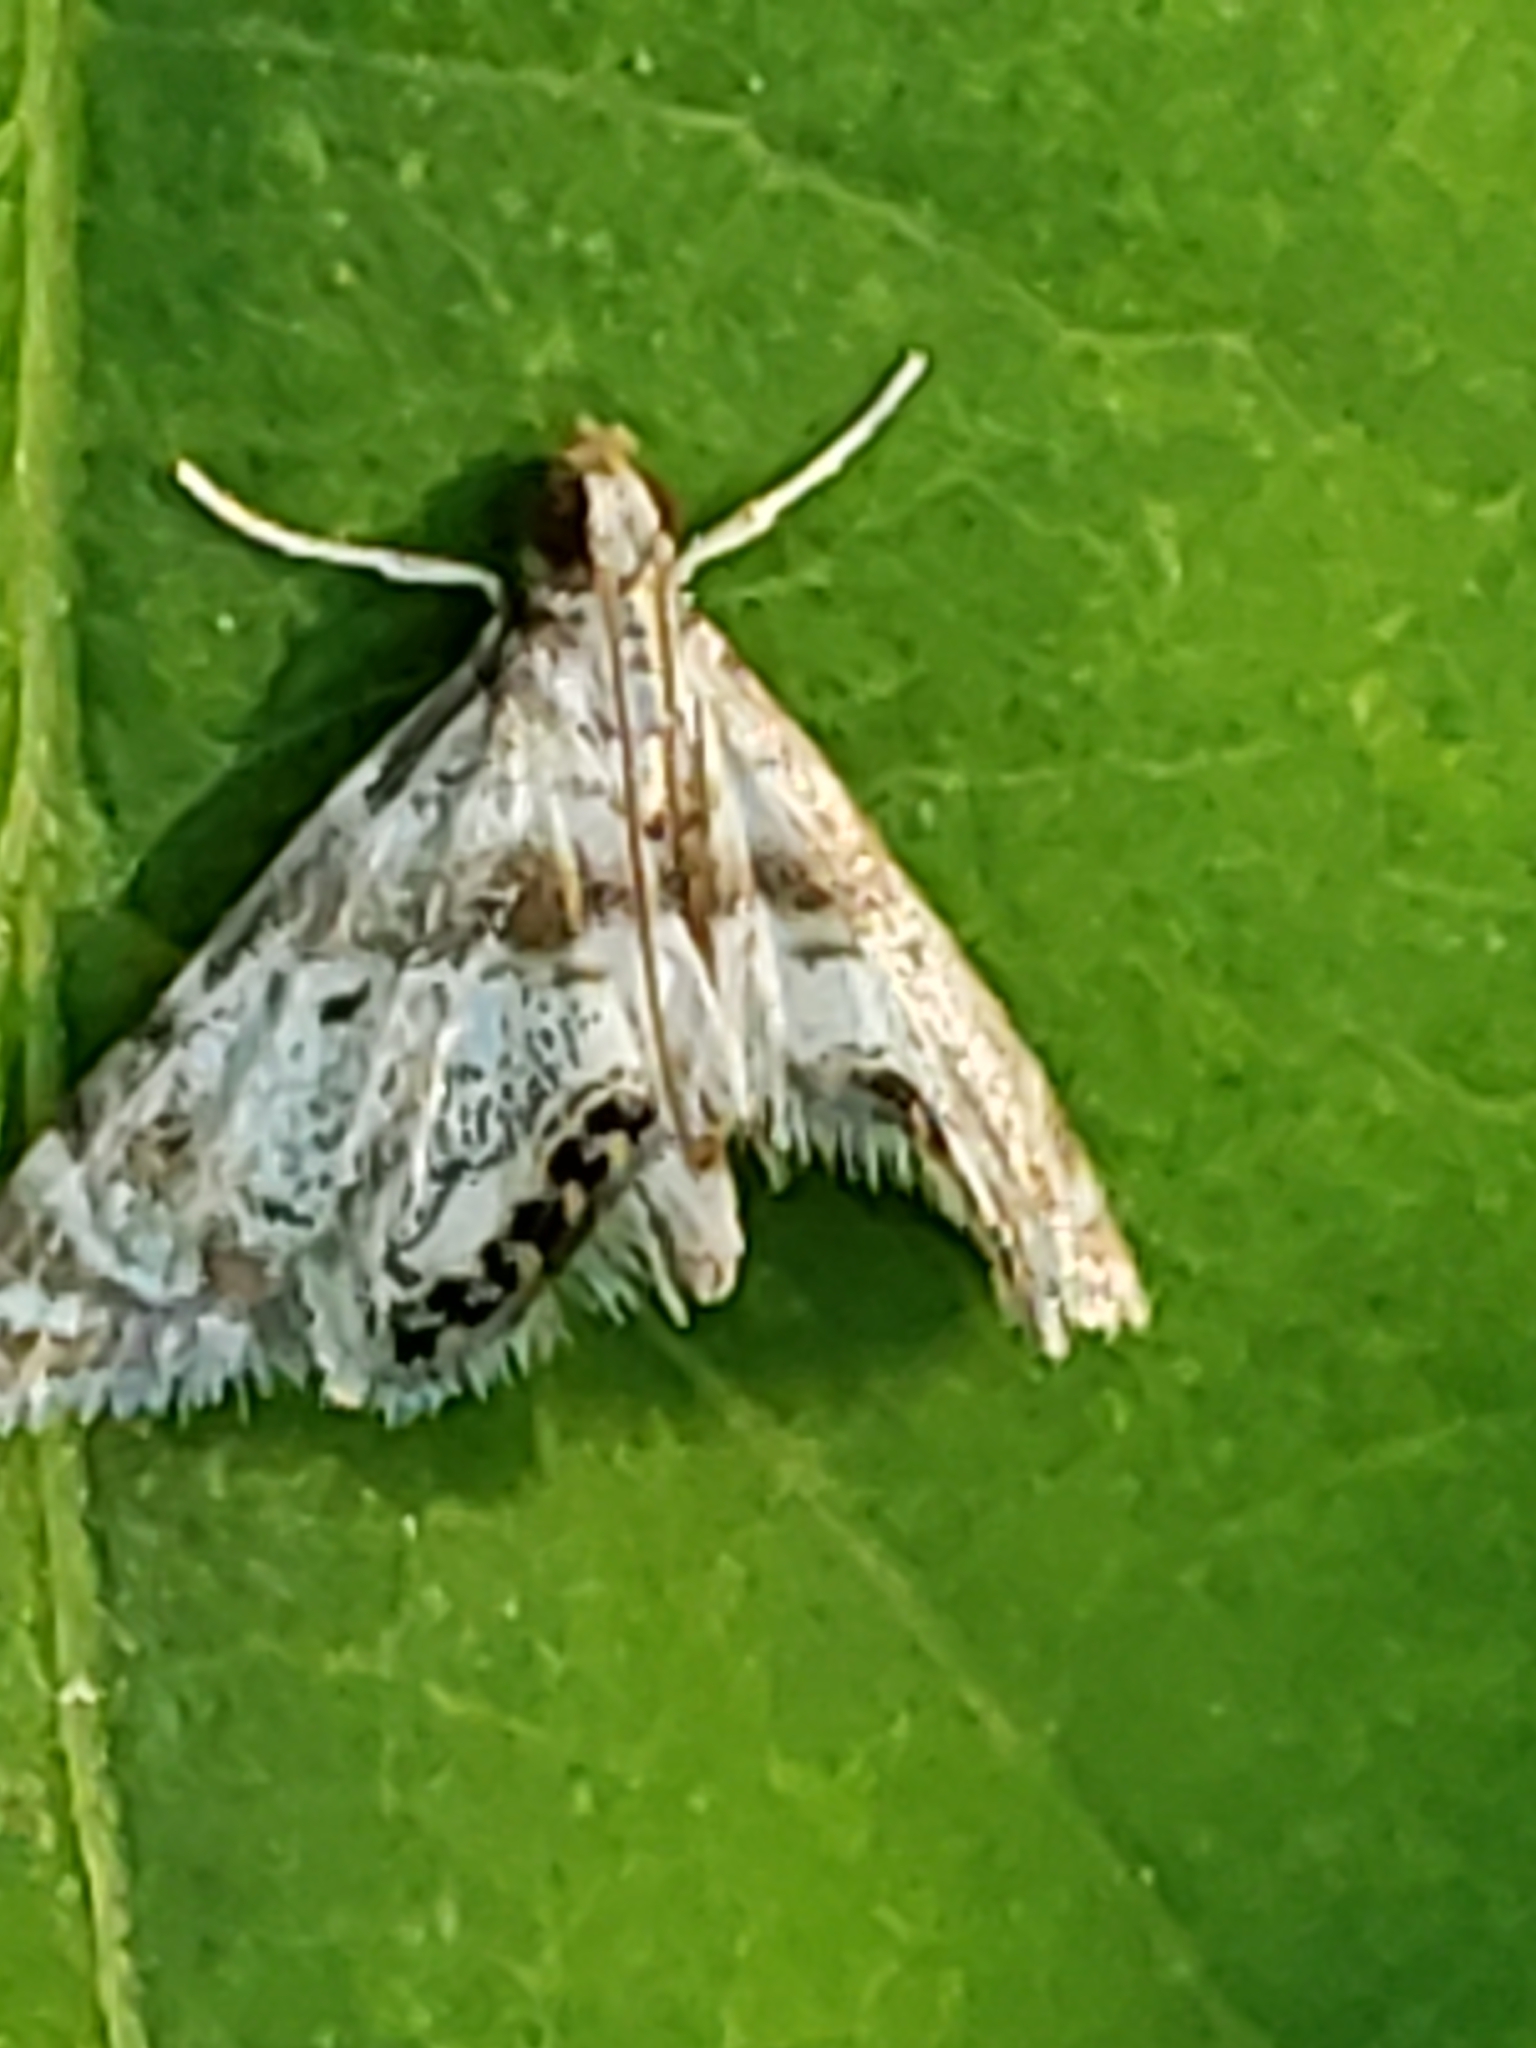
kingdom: Animalia
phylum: Arthropoda
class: Insecta
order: Lepidoptera
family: Crambidae
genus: Petrophila
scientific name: Petrophila fulicalis
